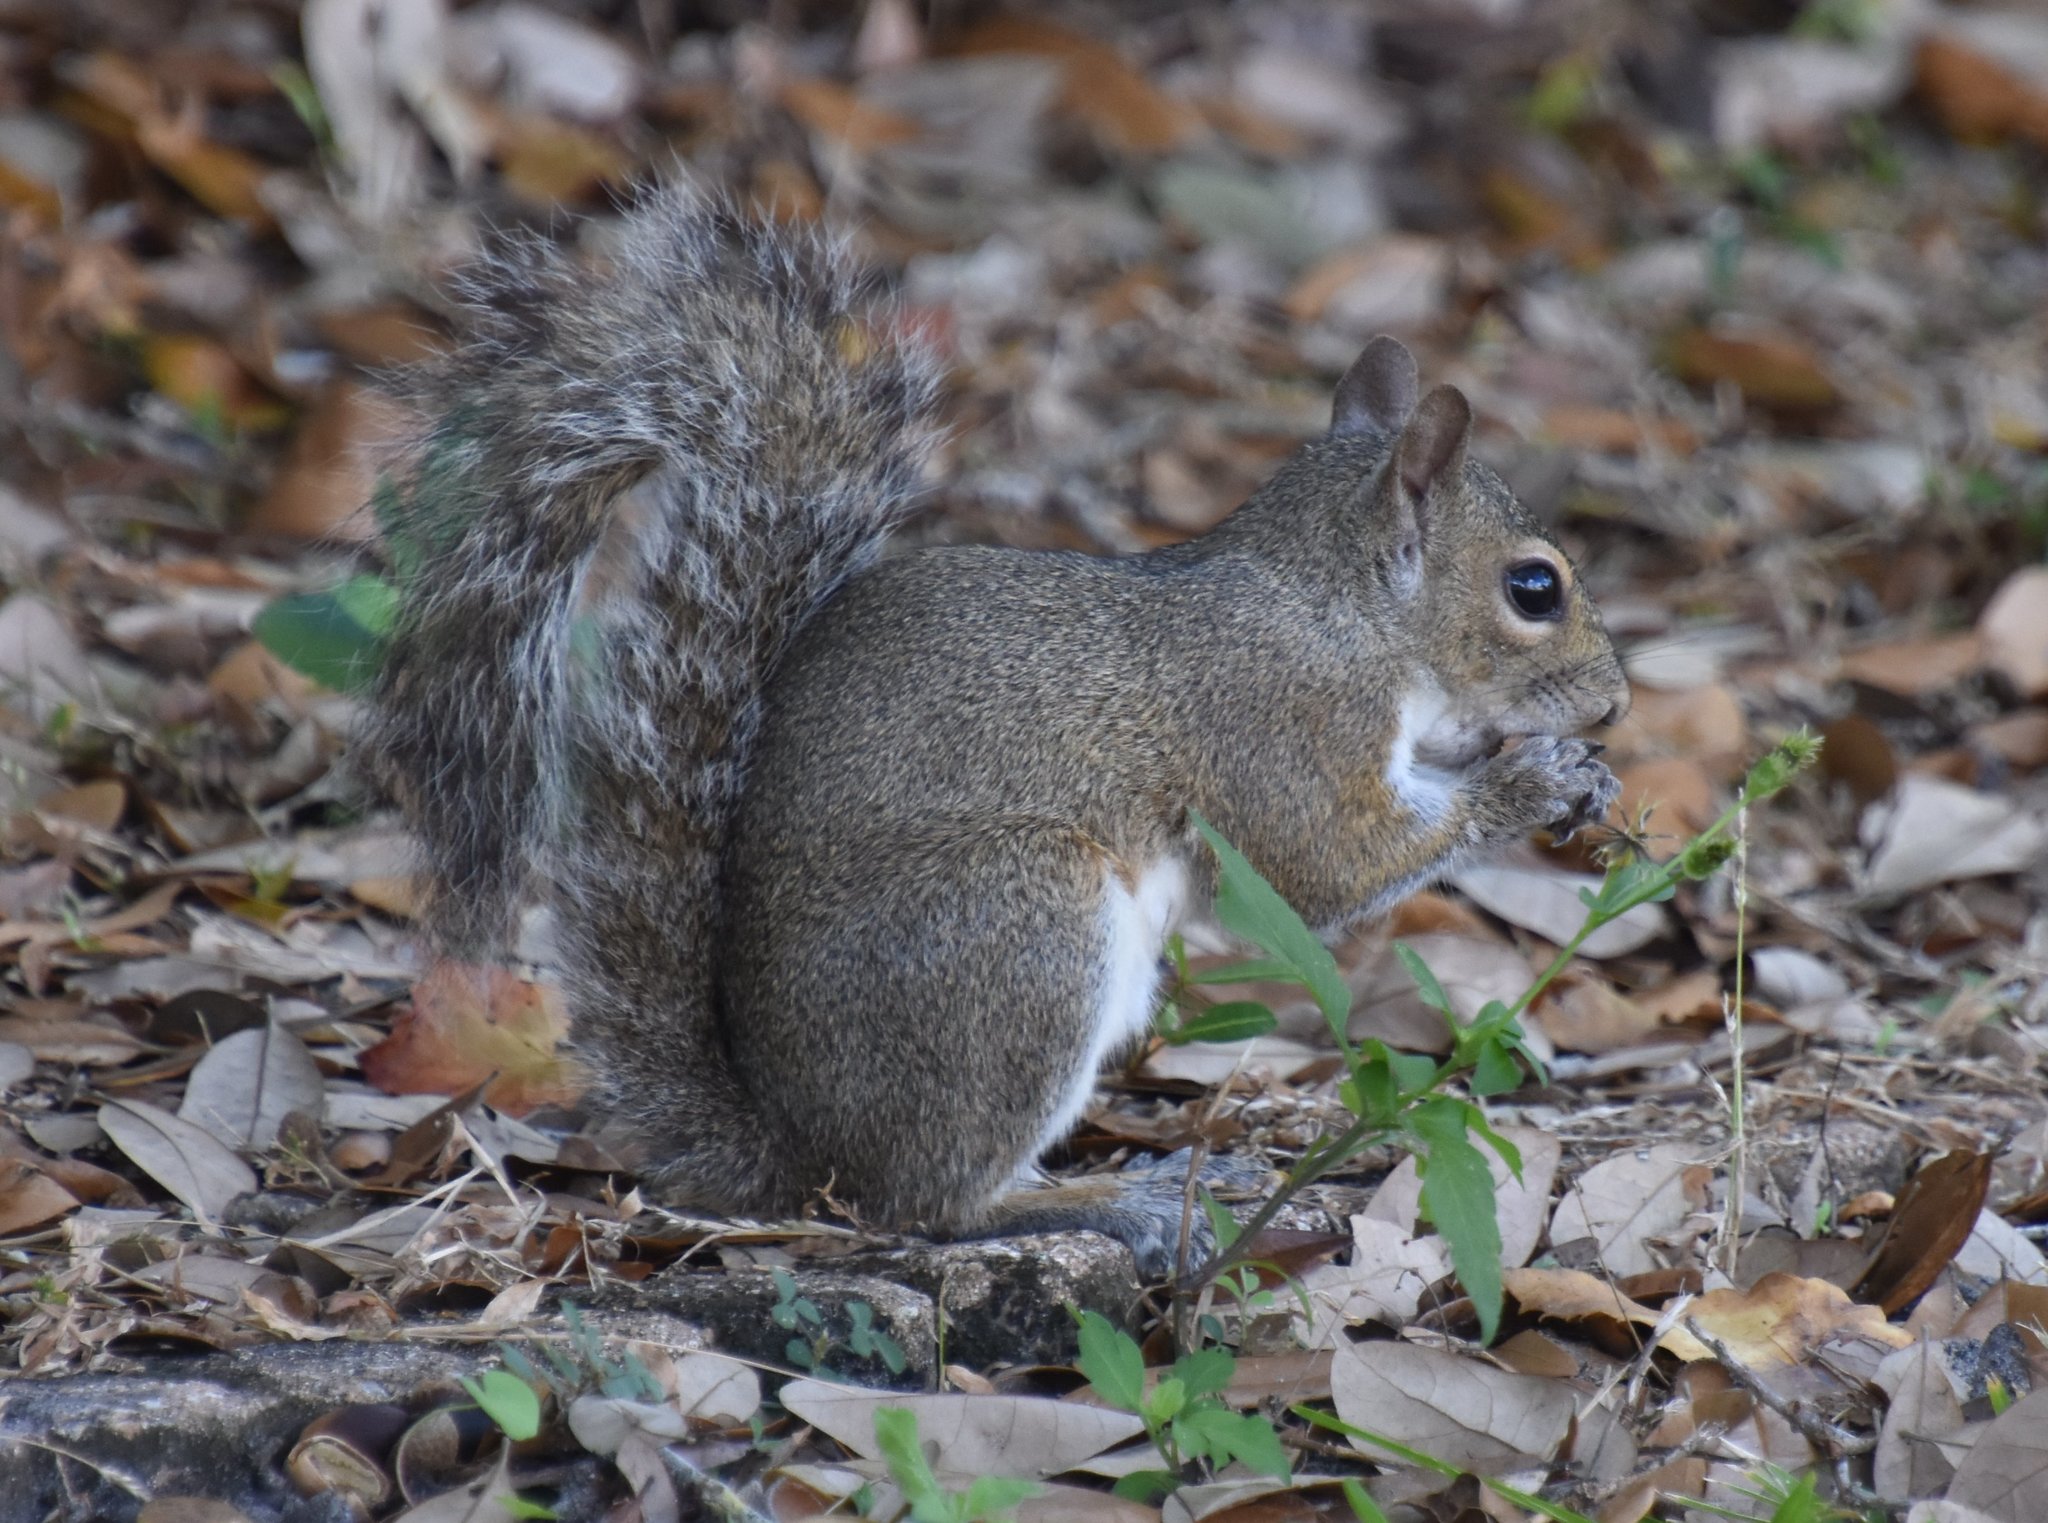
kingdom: Animalia
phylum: Chordata
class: Mammalia
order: Rodentia
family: Sciuridae
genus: Sciurus
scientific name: Sciurus carolinensis
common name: Eastern gray squirrel
